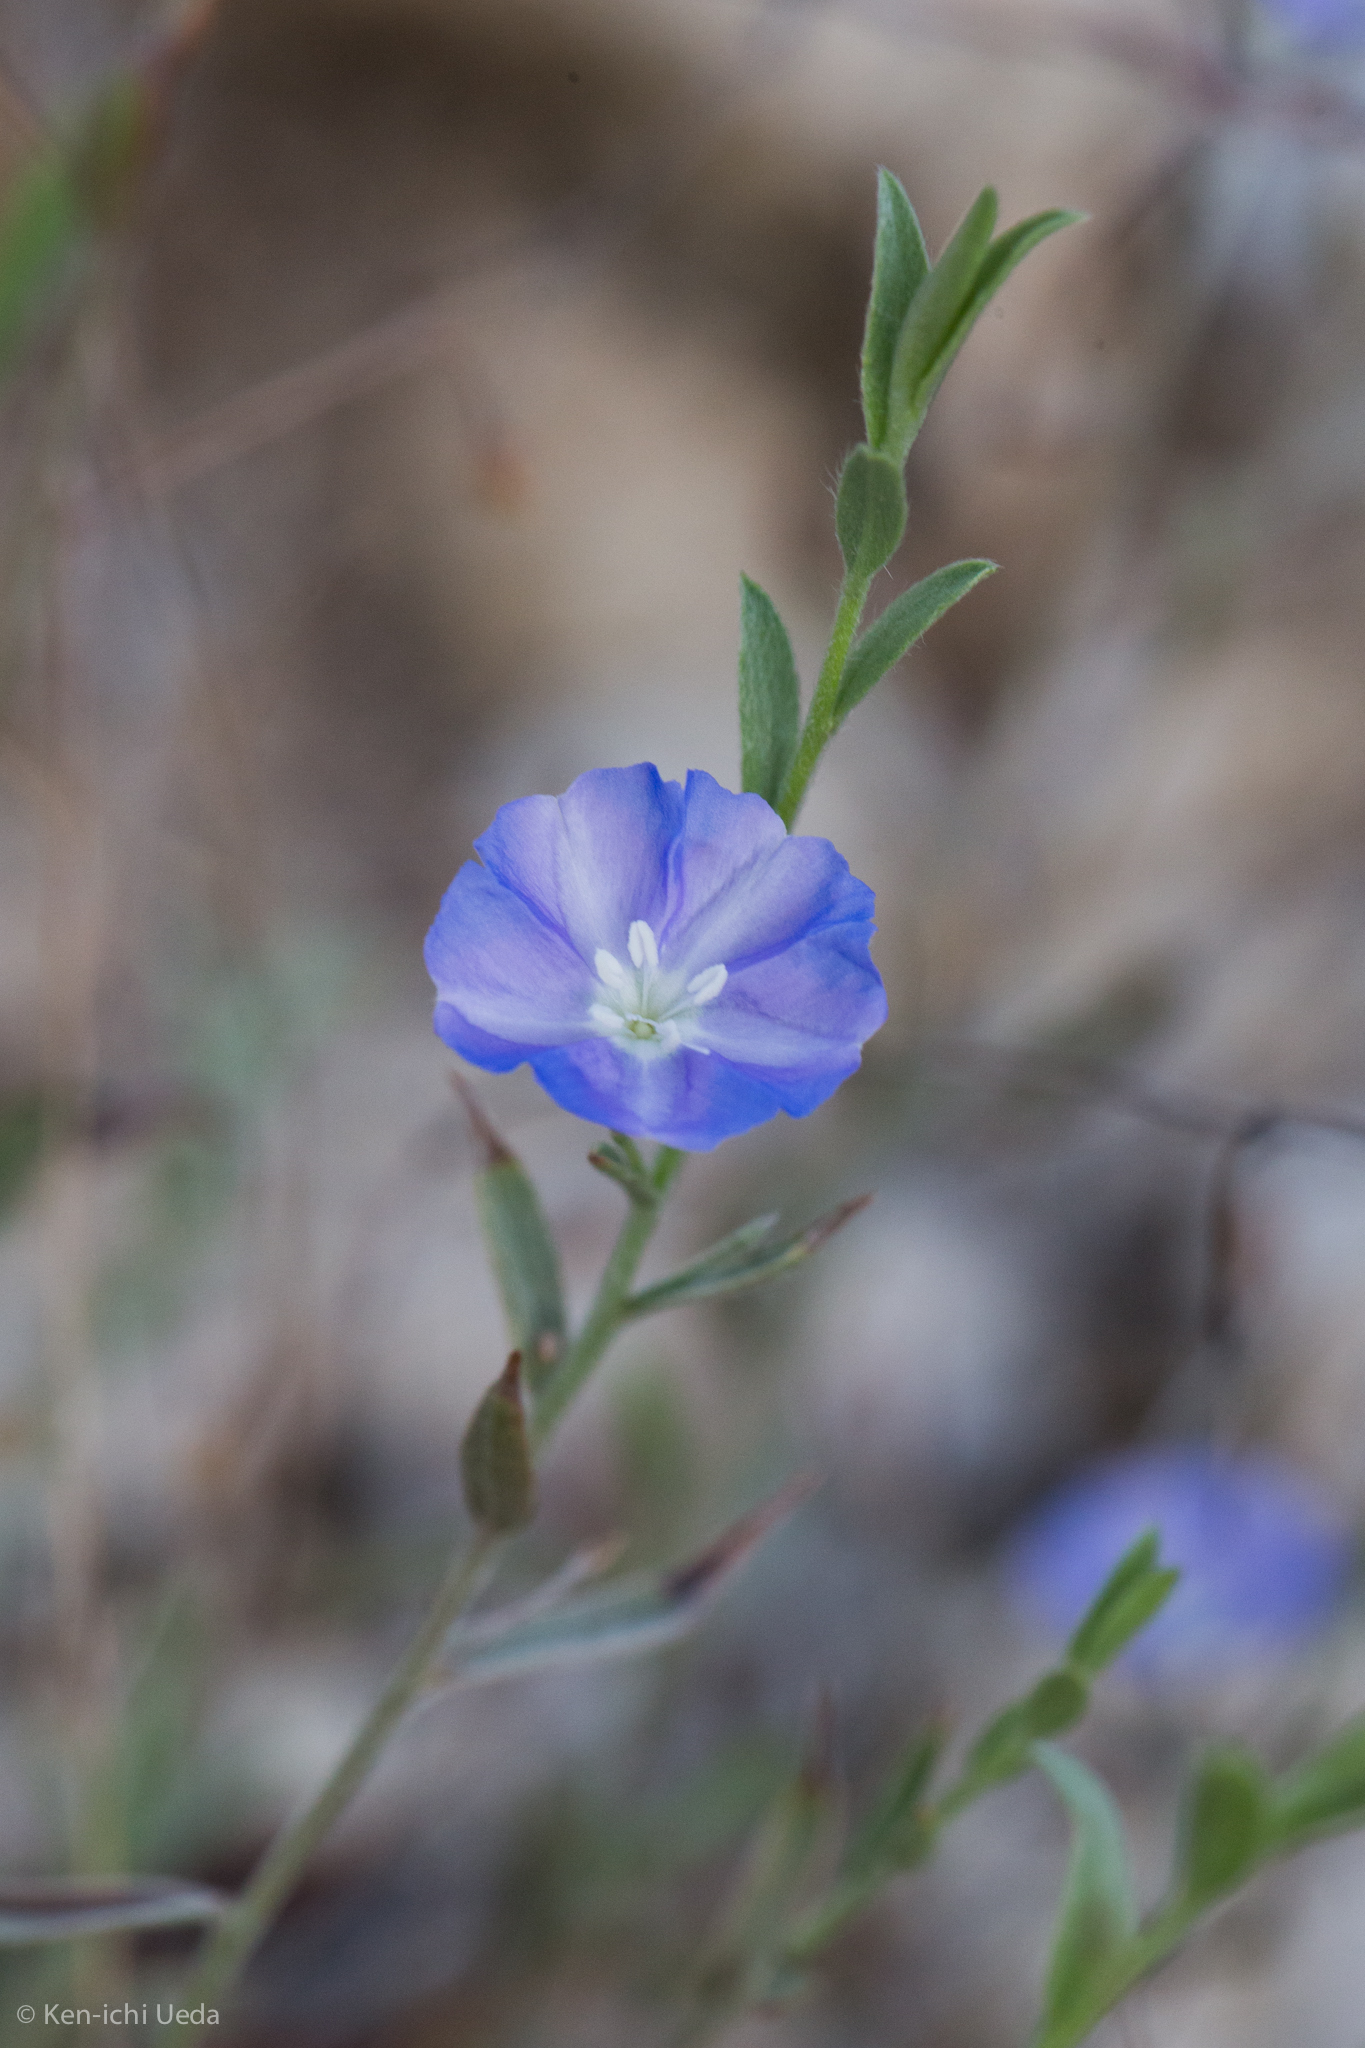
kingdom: Plantae
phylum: Tracheophyta
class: Magnoliopsida
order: Solanales
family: Convolvulaceae
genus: Evolvulus
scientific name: Evolvulus arizonicus
